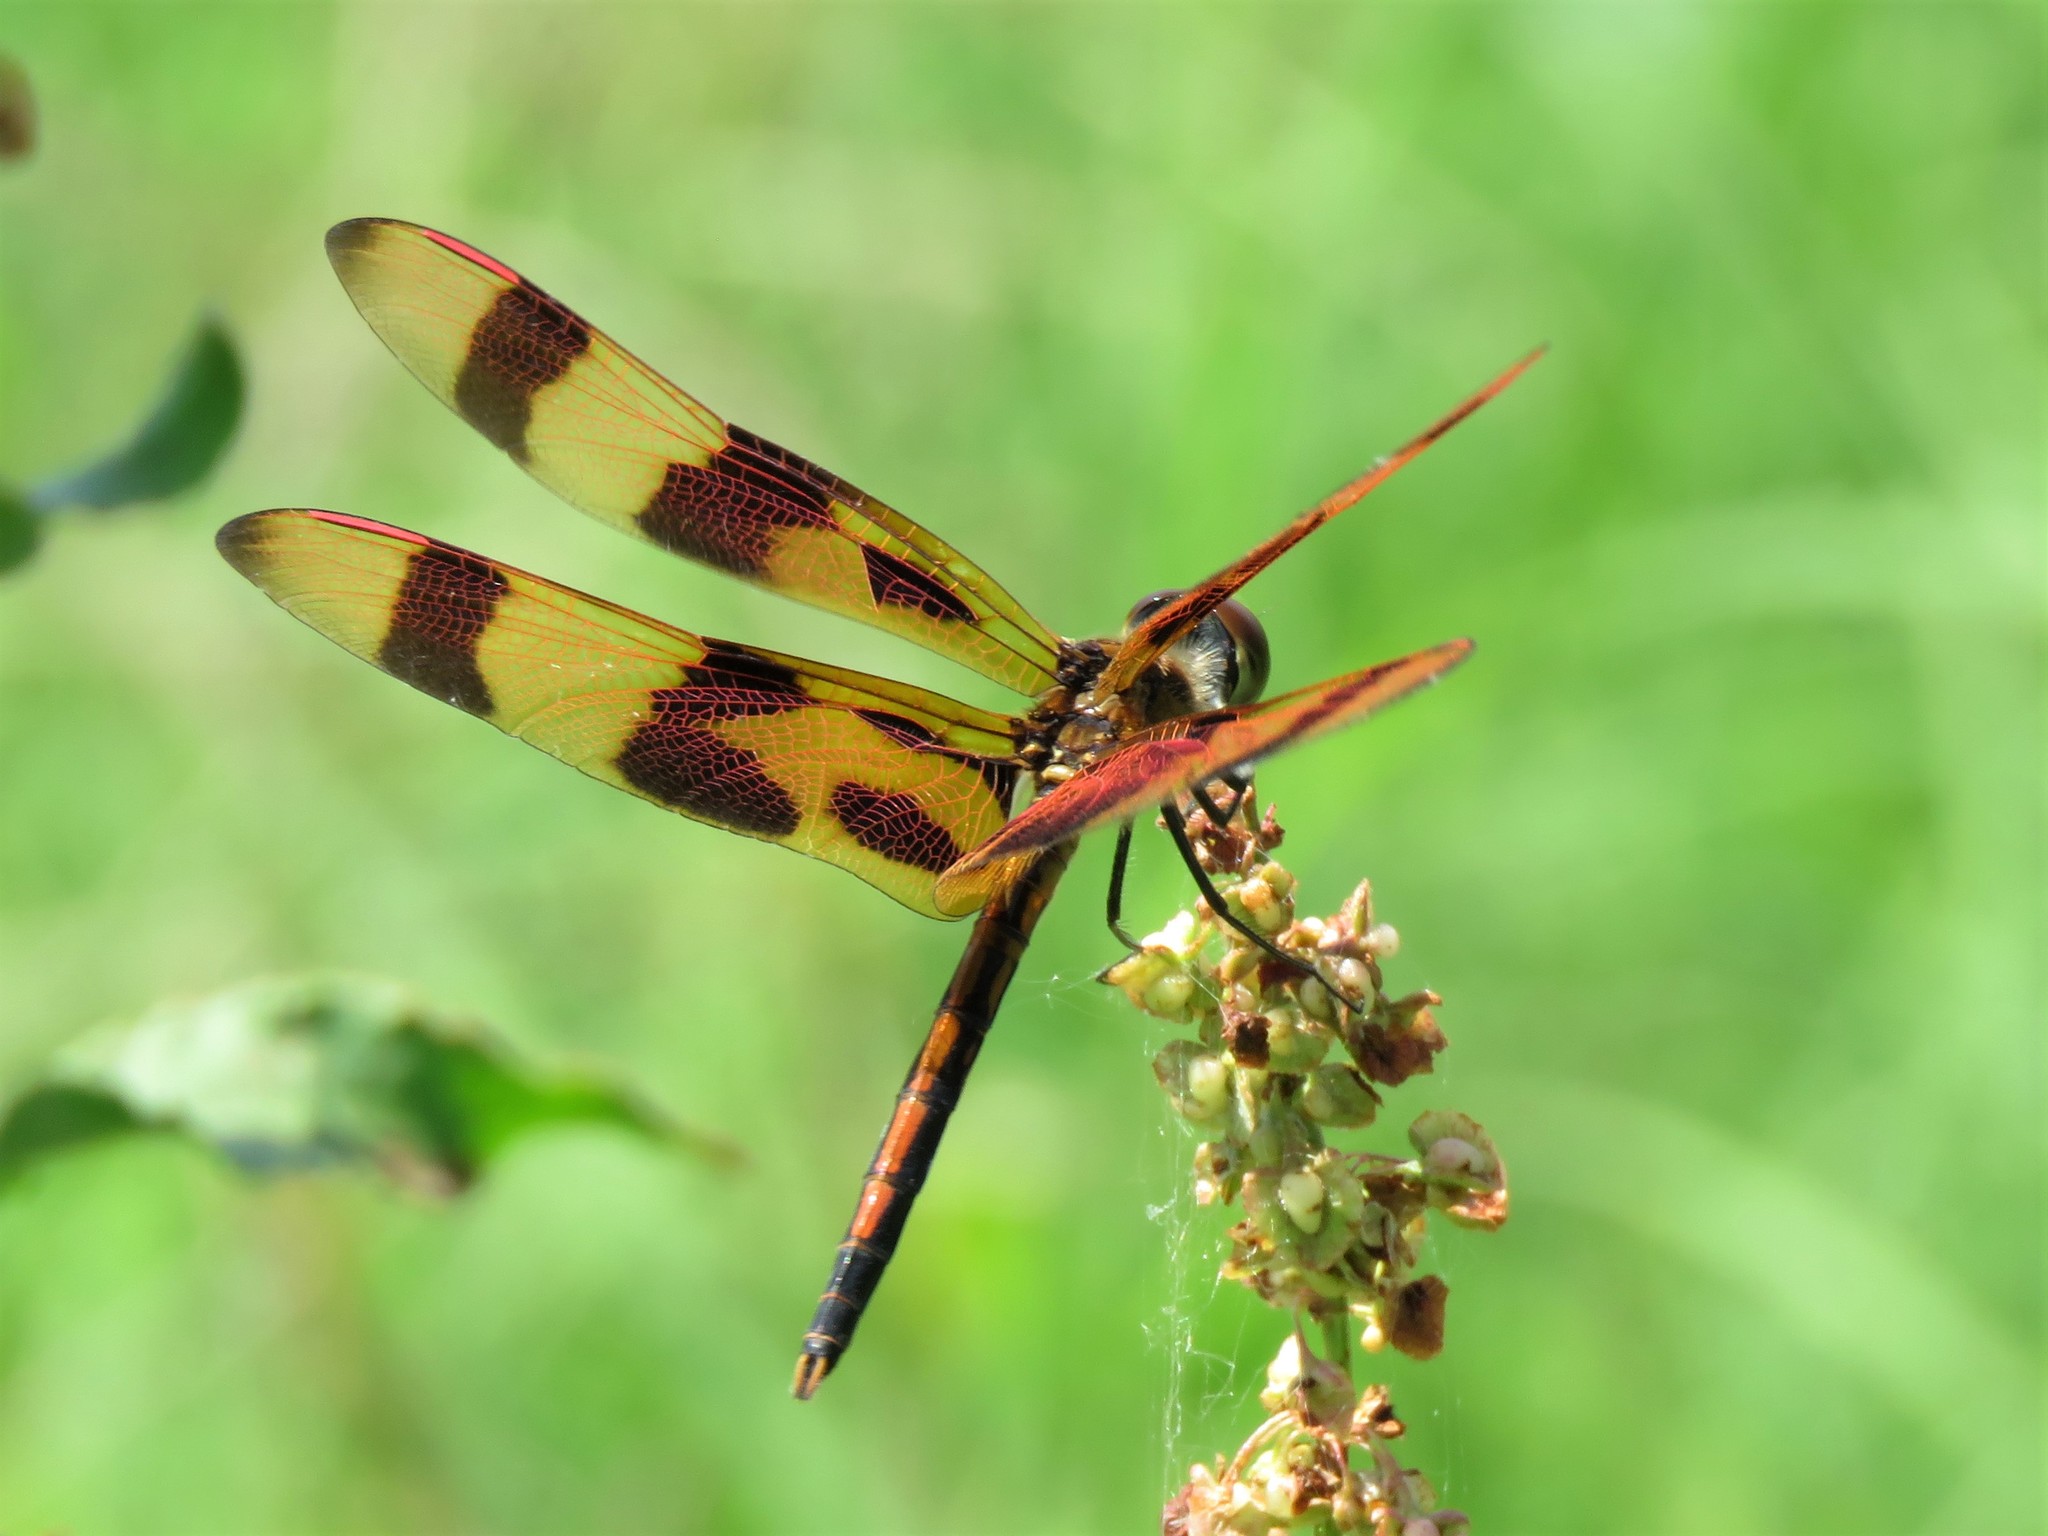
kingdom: Animalia
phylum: Arthropoda
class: Insecta
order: Odonata
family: Libellulidae
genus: Celithemis
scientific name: Celithemis eponina
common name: Halloween pennant
